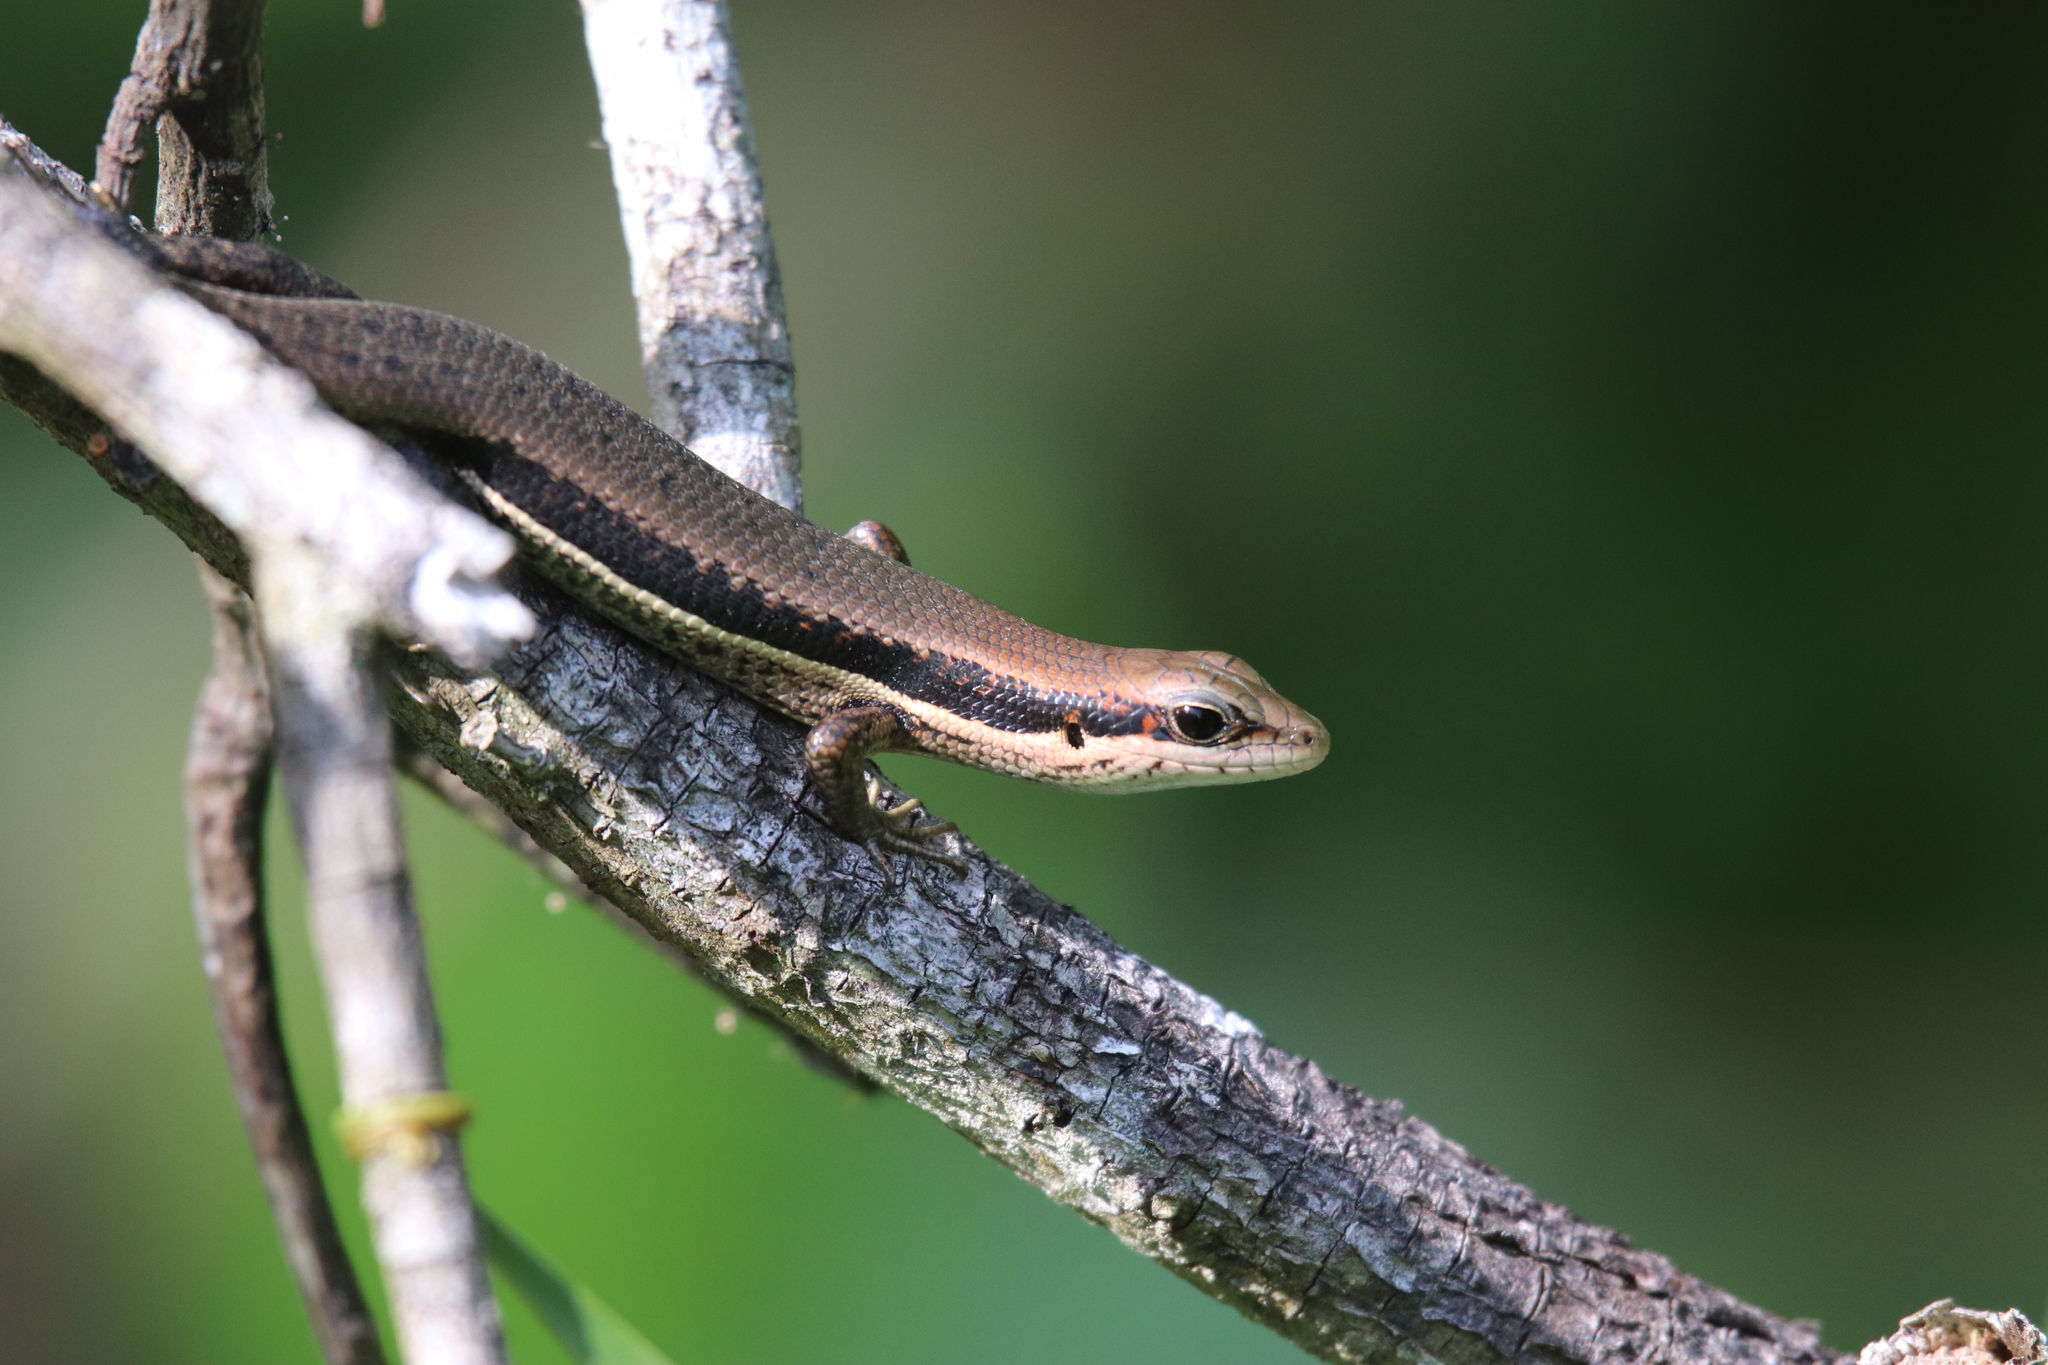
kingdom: Animalia
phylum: Chordata
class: Squamata
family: Scincidae
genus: Trachylepis
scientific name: Trachylepis affinis
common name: Senegal mabuya
